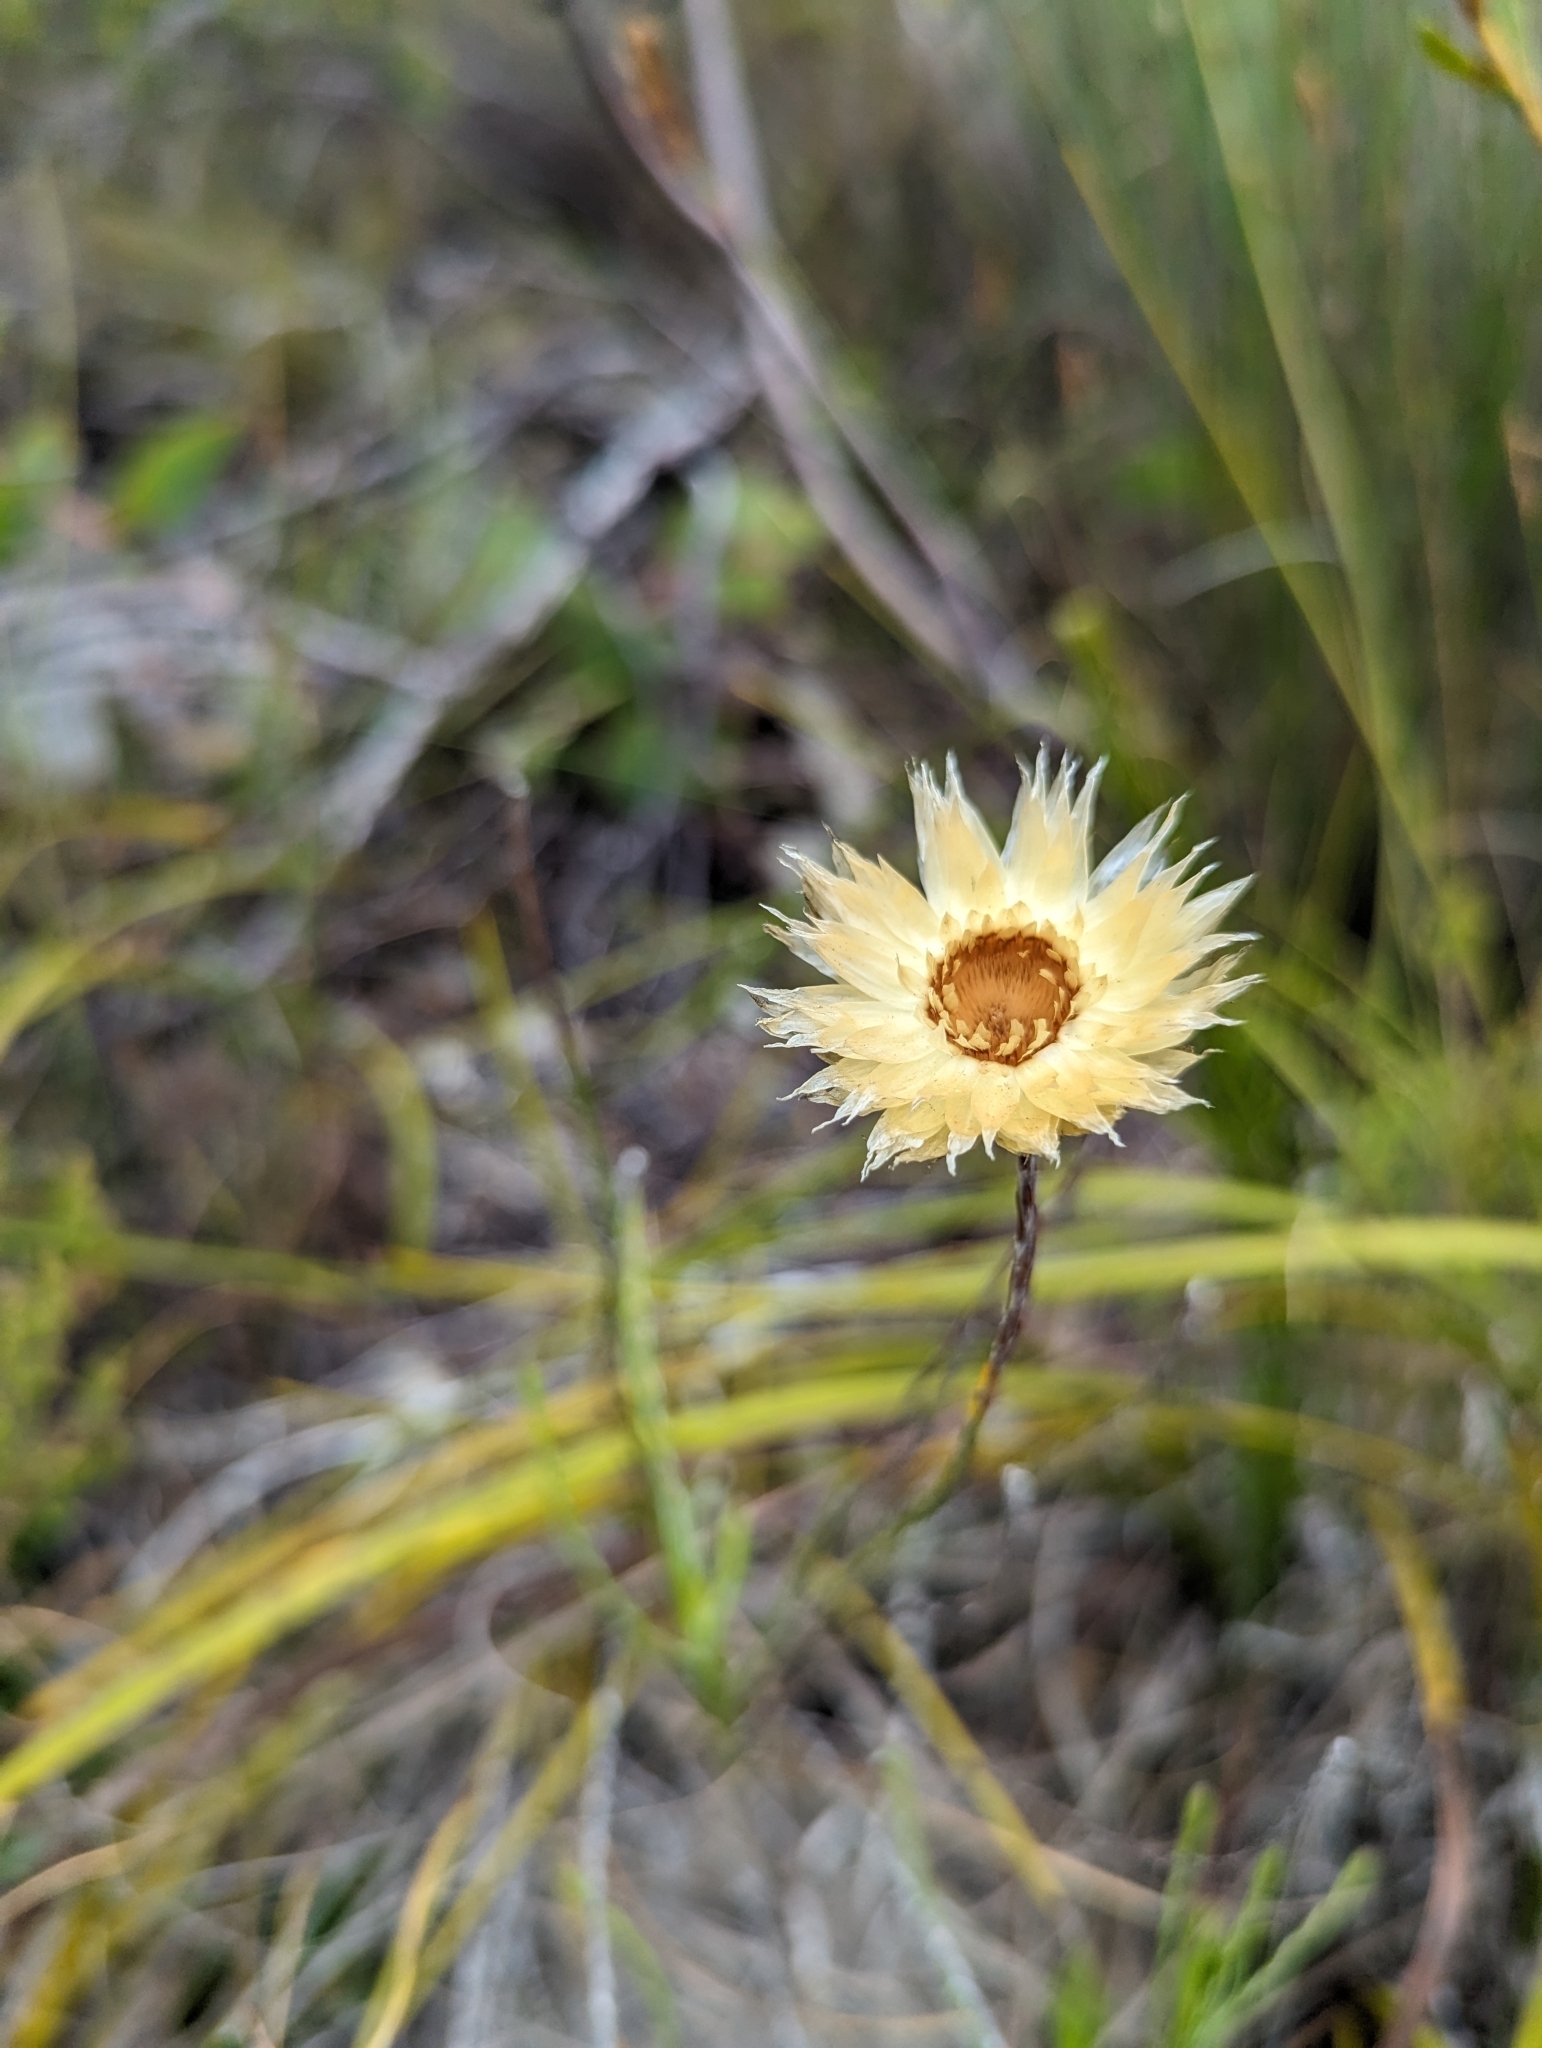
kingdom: Plantae
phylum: Tracheophyta
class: Magnoliopsida
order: Asterales
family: Asteraceae
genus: Edmondia
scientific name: Edmondia sesamoides
